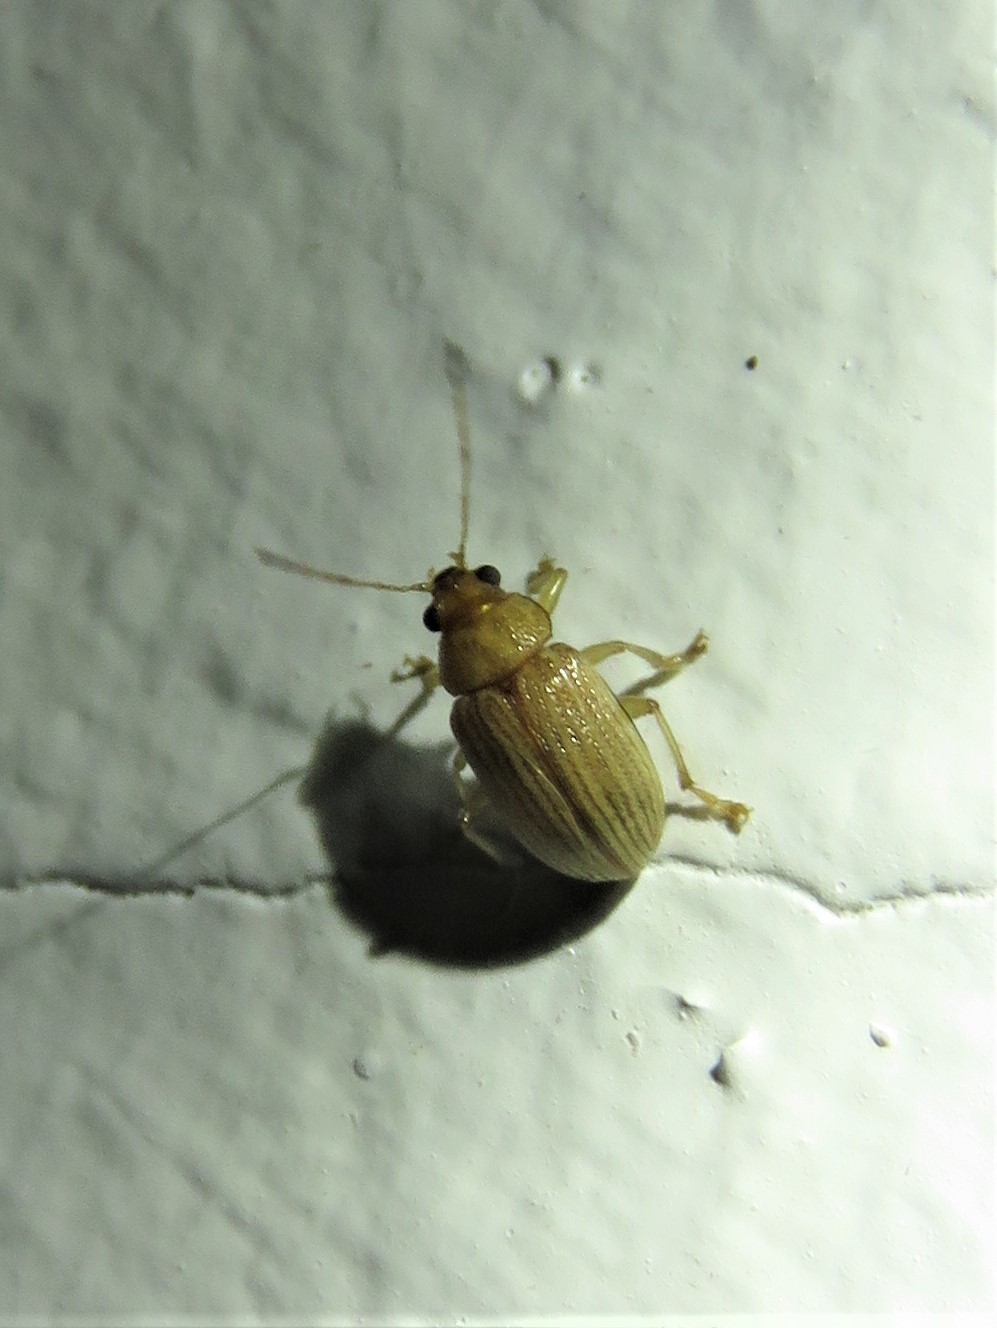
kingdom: Animalia
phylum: Arthropoda
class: Insecta
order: Coleoptera
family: Chrysomelidae
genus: Colaspis
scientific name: Colaspis brunnea
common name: Grape colaspis
